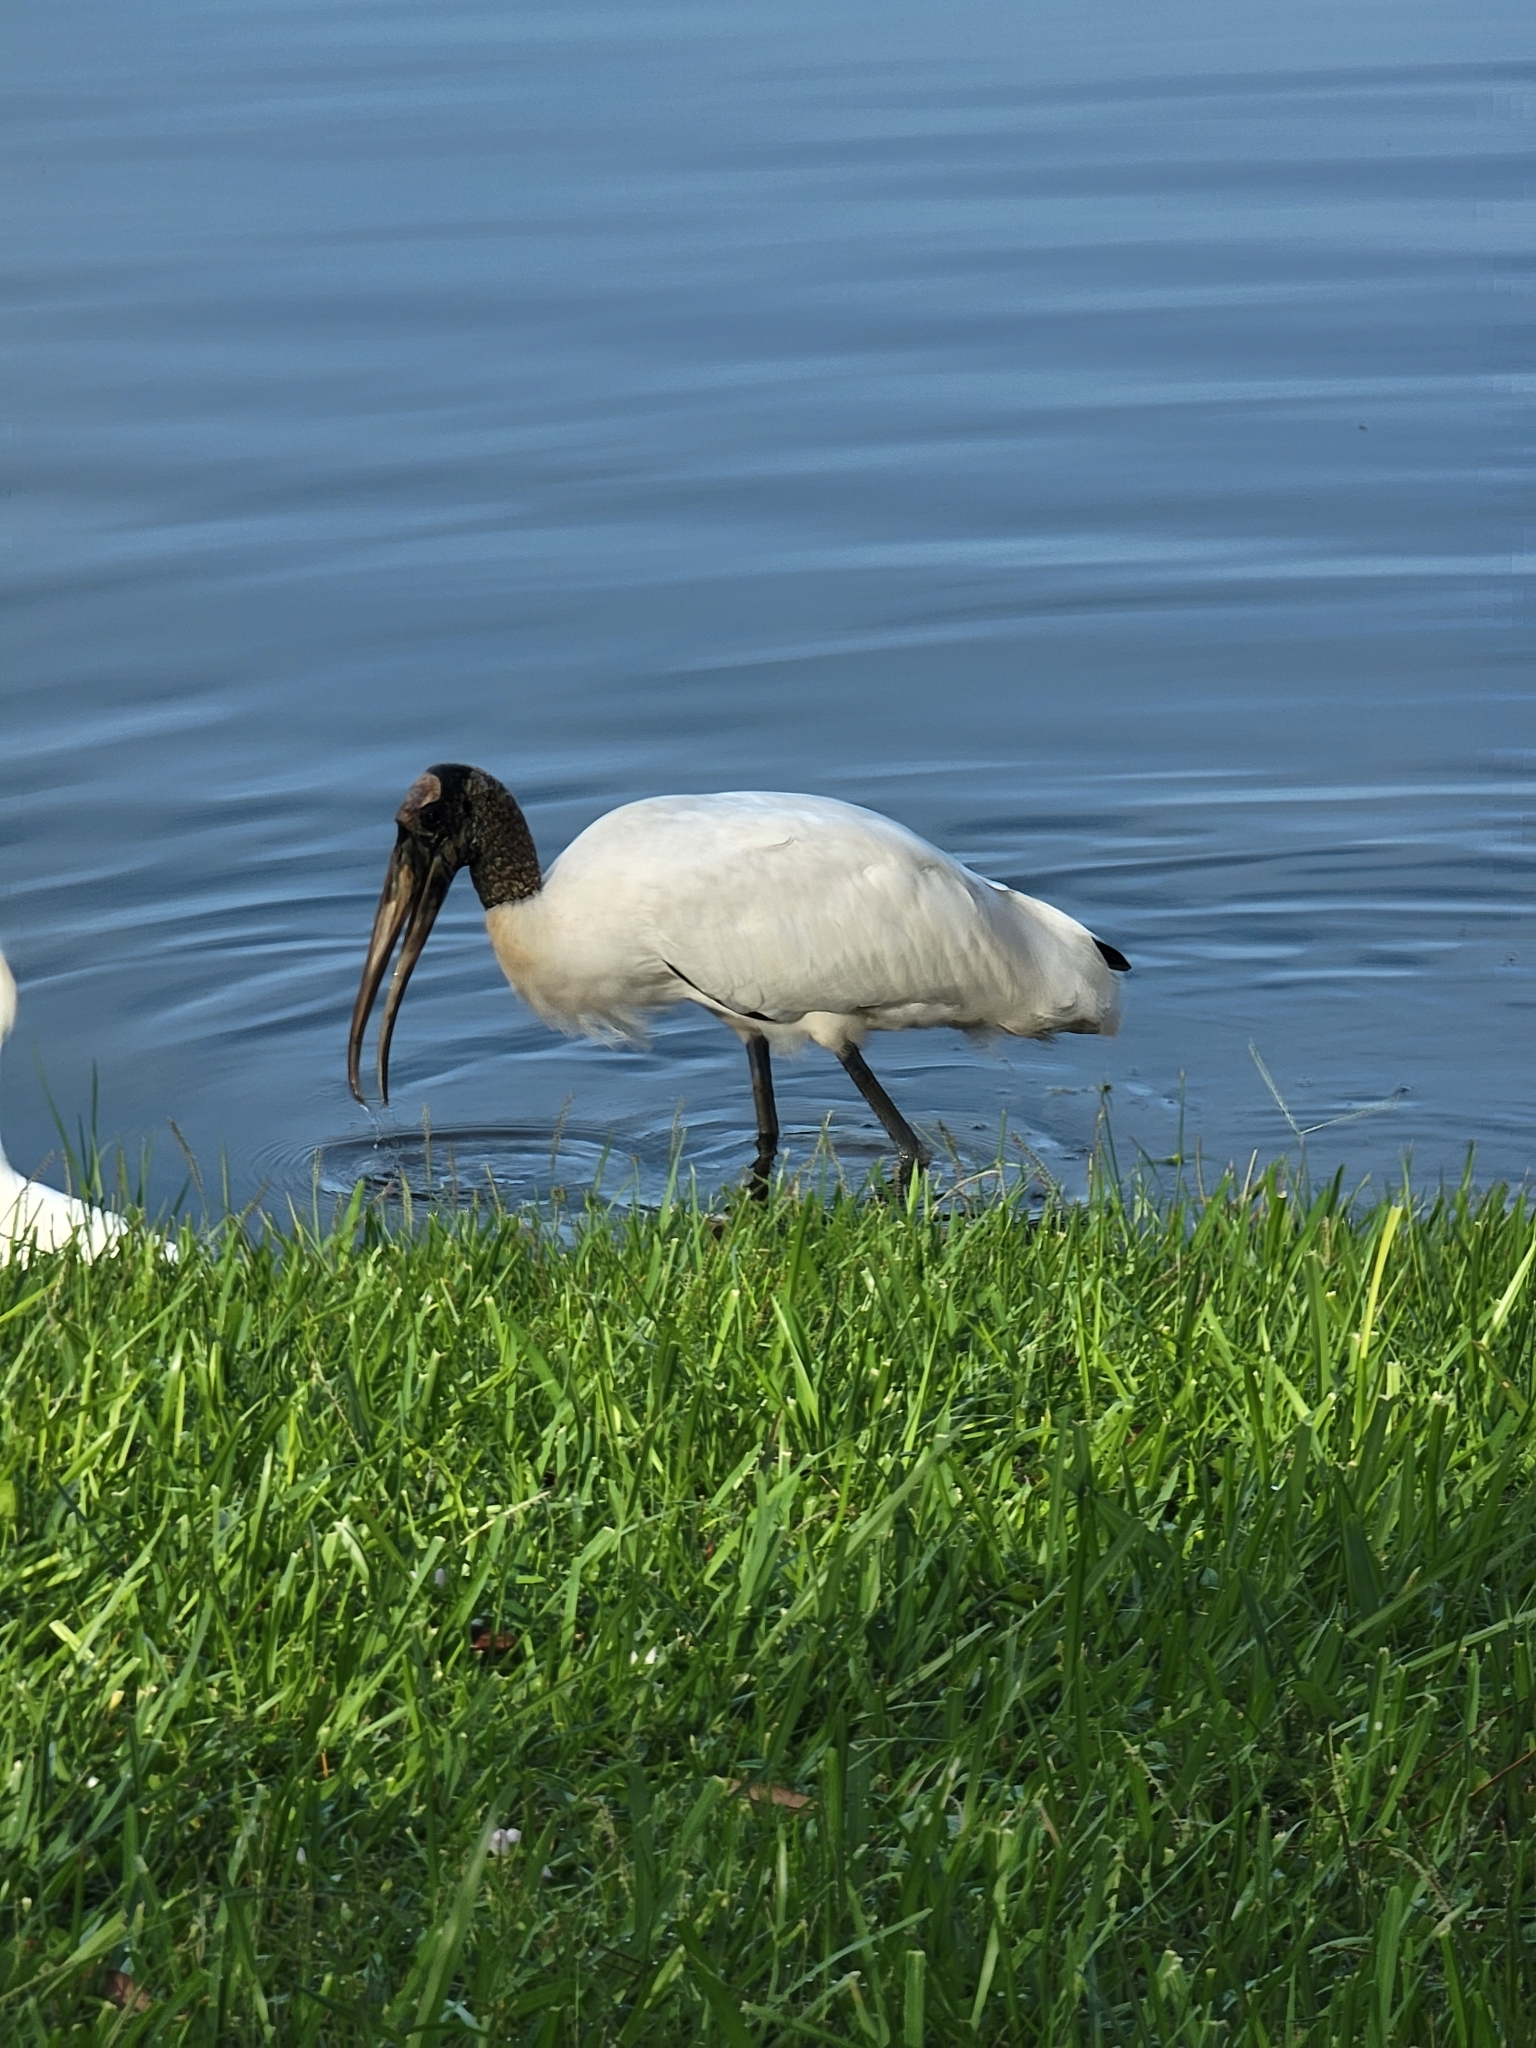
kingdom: Animalia
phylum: Chordata
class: Aves
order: Ciconiiformes
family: Ciconiidae
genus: Mycteria
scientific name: Mycteria americana
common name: Wood stork
